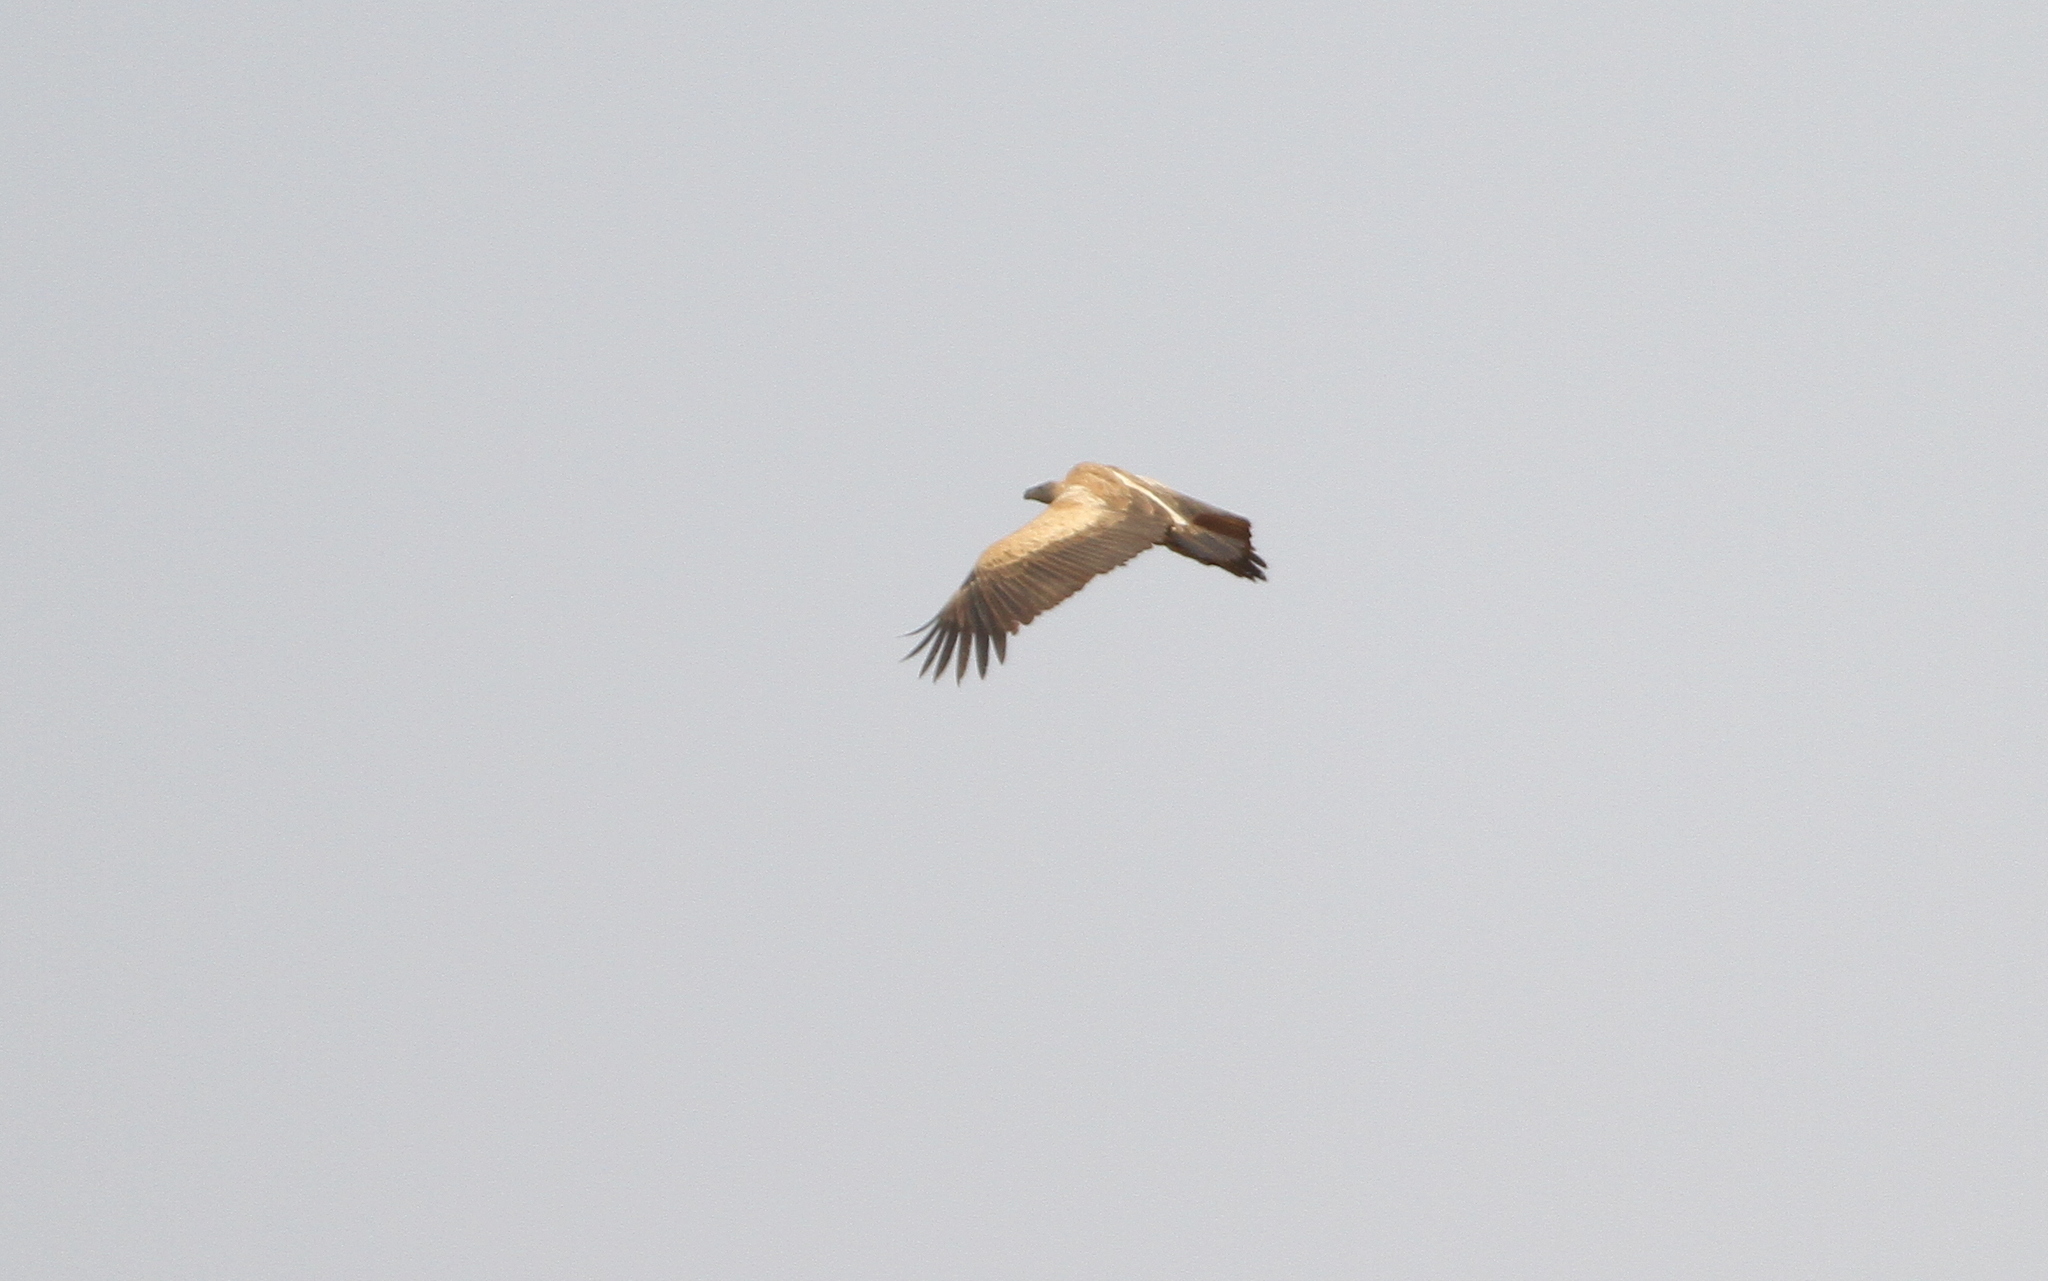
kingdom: Animalia
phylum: Chordata
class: Aves
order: Accipitriformes
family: Accipitridae
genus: Gyps
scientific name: Gyps africanus
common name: White-backed vulture
